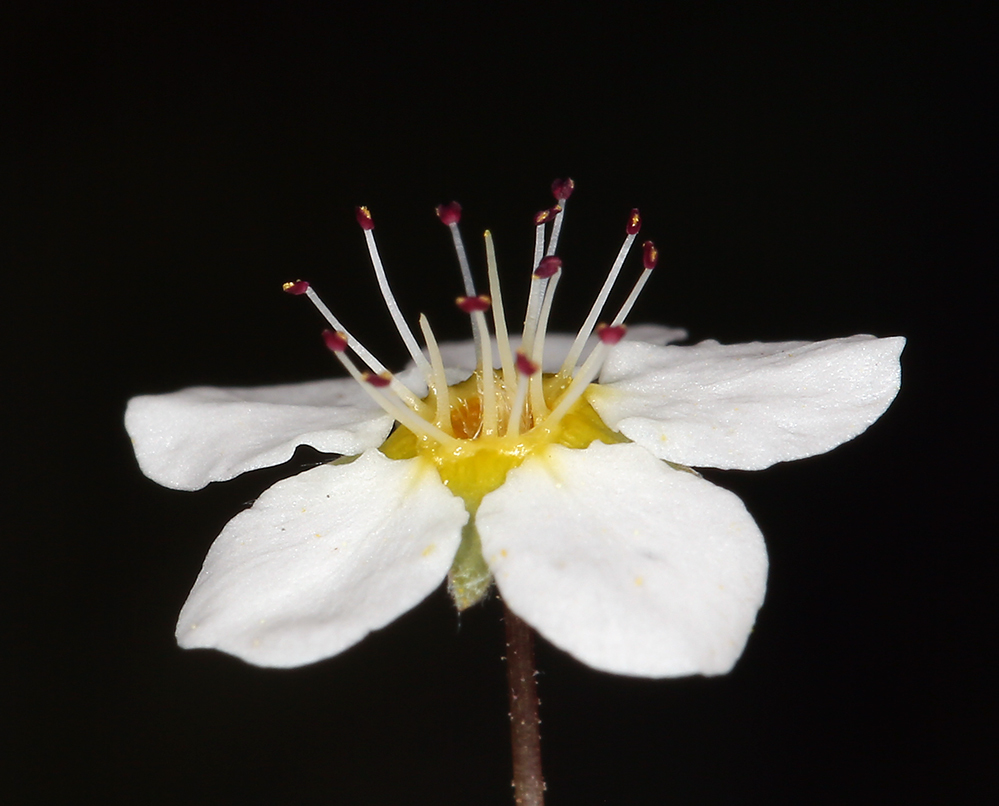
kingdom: Plantae
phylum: Tracheophyta
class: Magnoliopsida
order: Rosales
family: Rosaceae
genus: Potentilla
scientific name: Potentilla santolinoides
